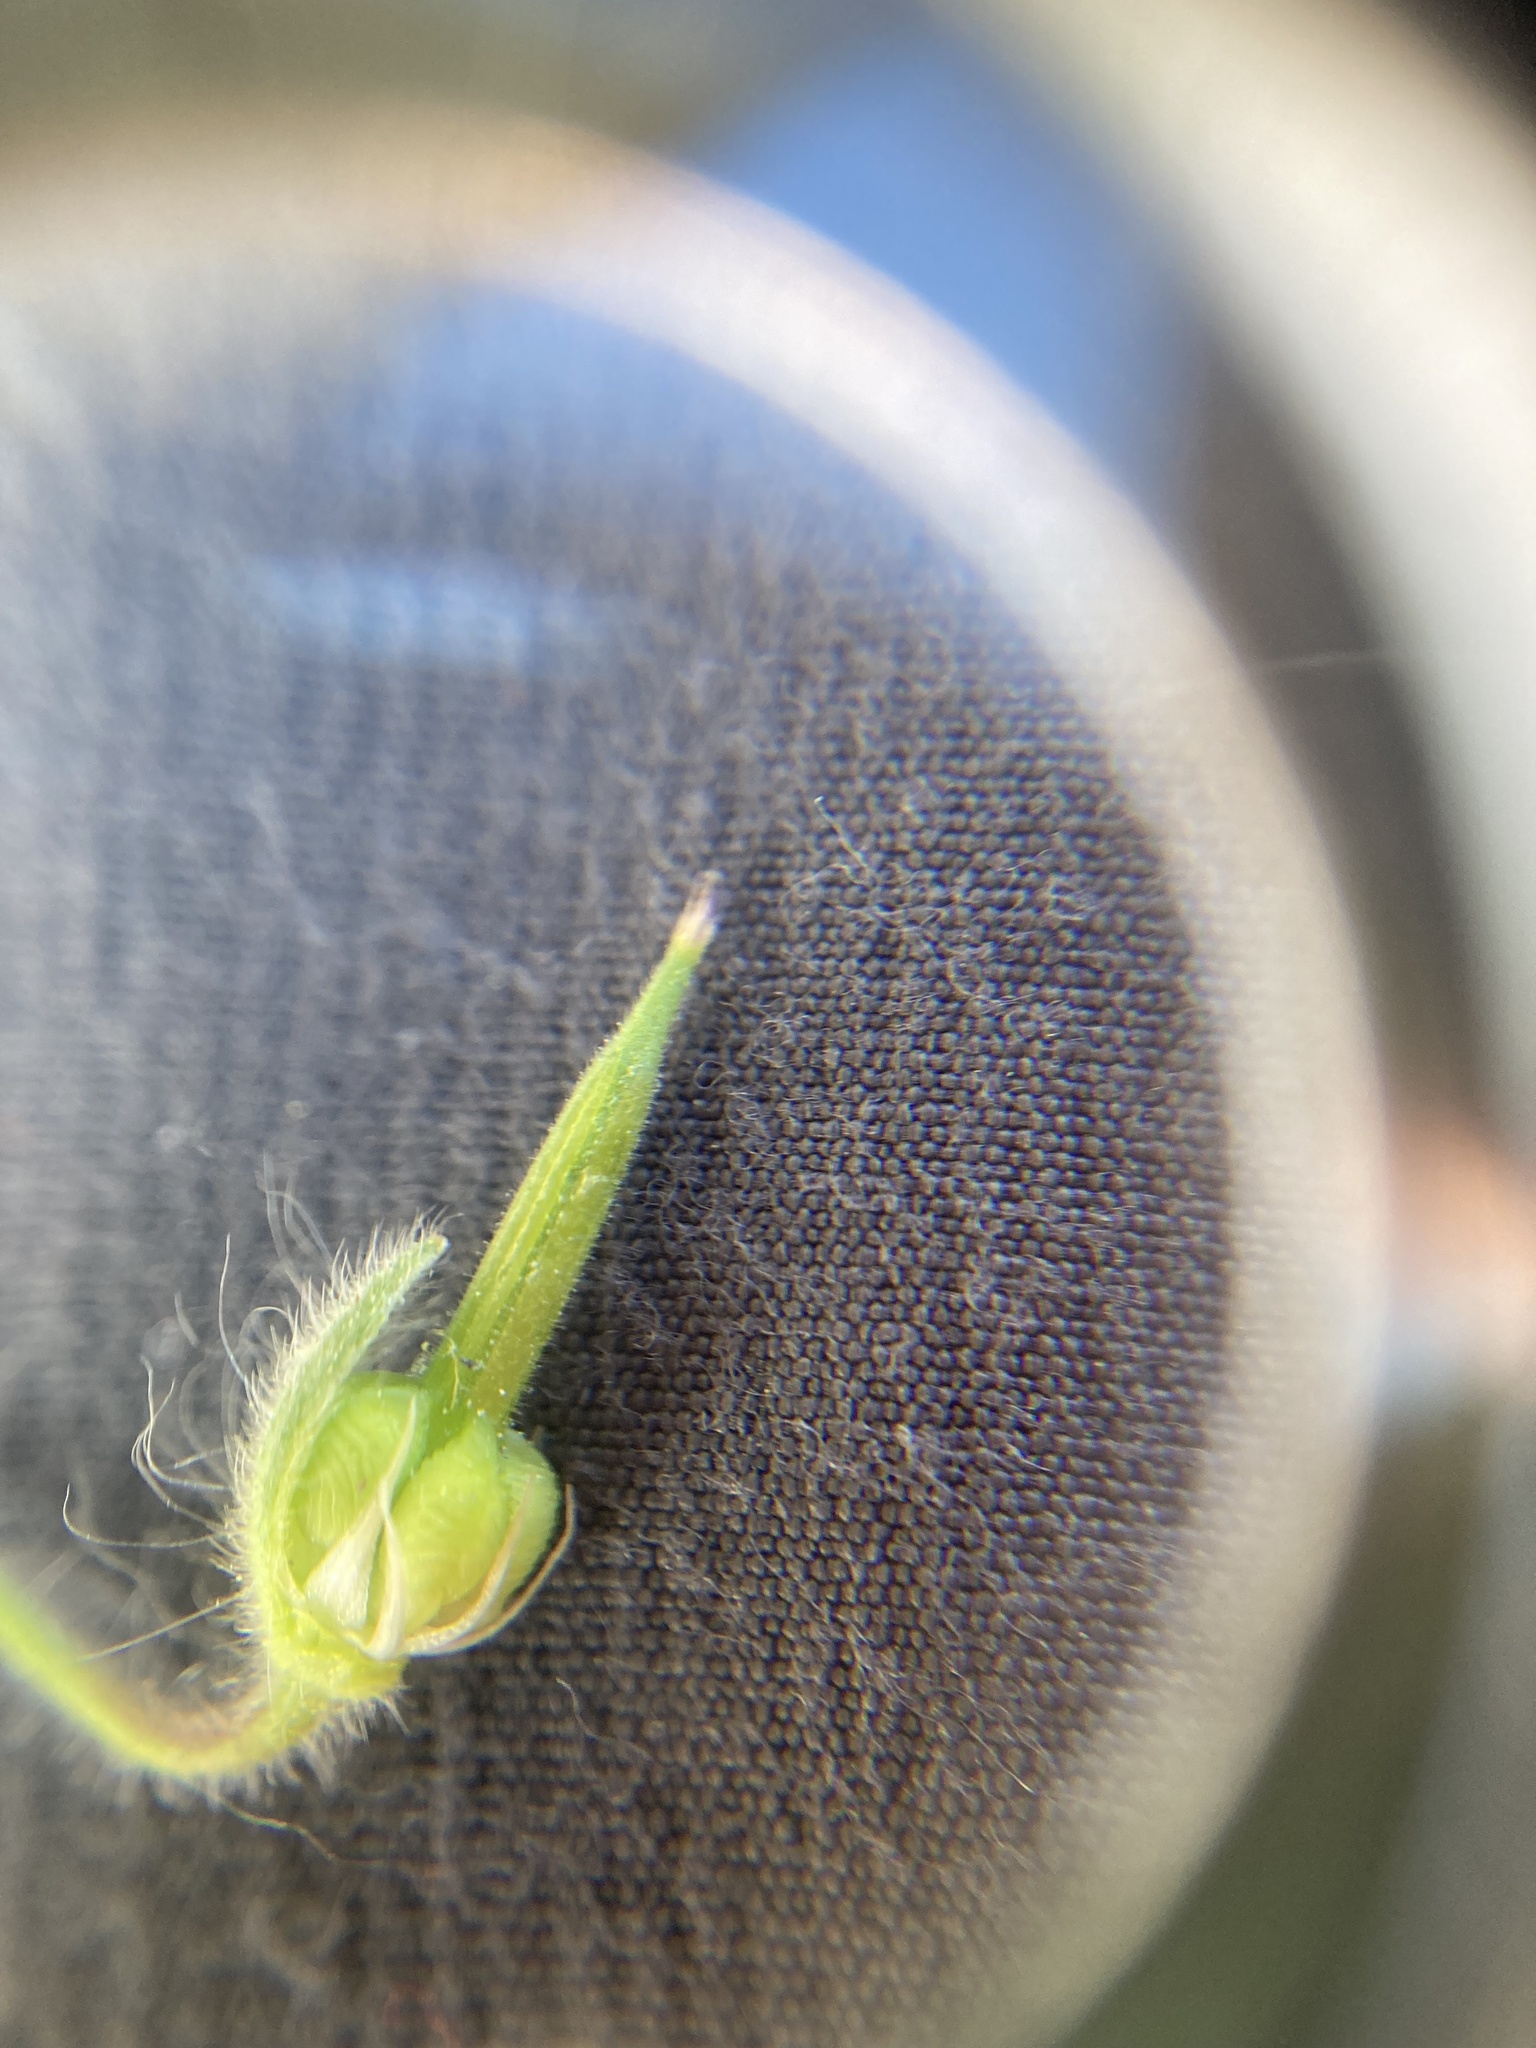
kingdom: Plantae
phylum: Tracheophyta
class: Magnoliopsida
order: Geraniales
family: Geraniaceae
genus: Geranium
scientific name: Geranium molle
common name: Dove's-foot crane's-bill
